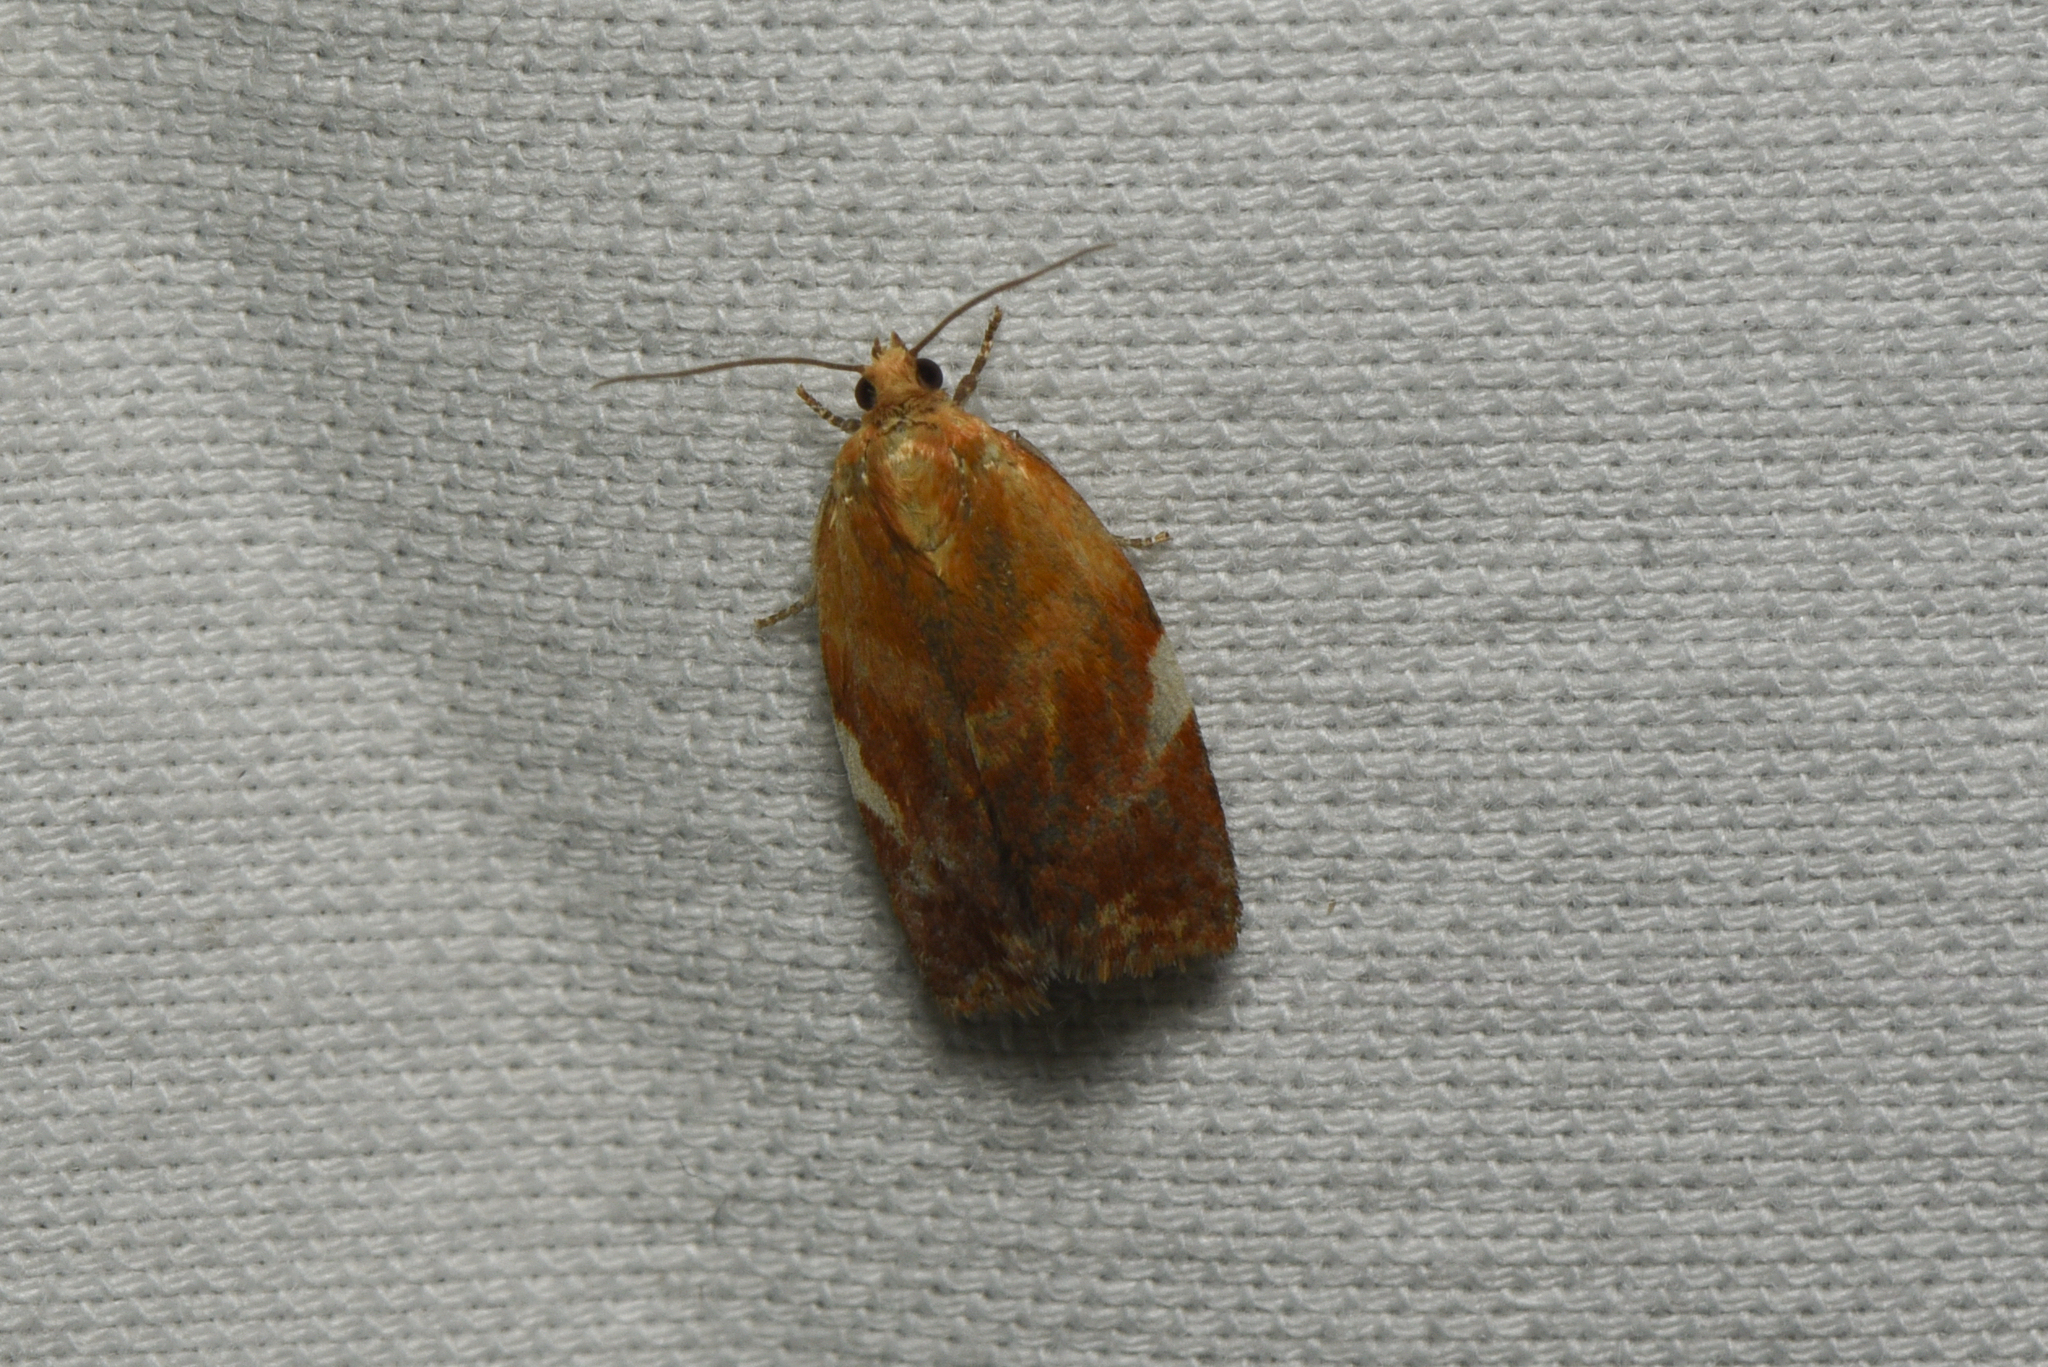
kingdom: Animalia
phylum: Arthropoda
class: Insecta
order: Lepidoptera
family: Tortricidae
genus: Clepsis
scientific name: Clepsis persicana
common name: White triangle tortrix
